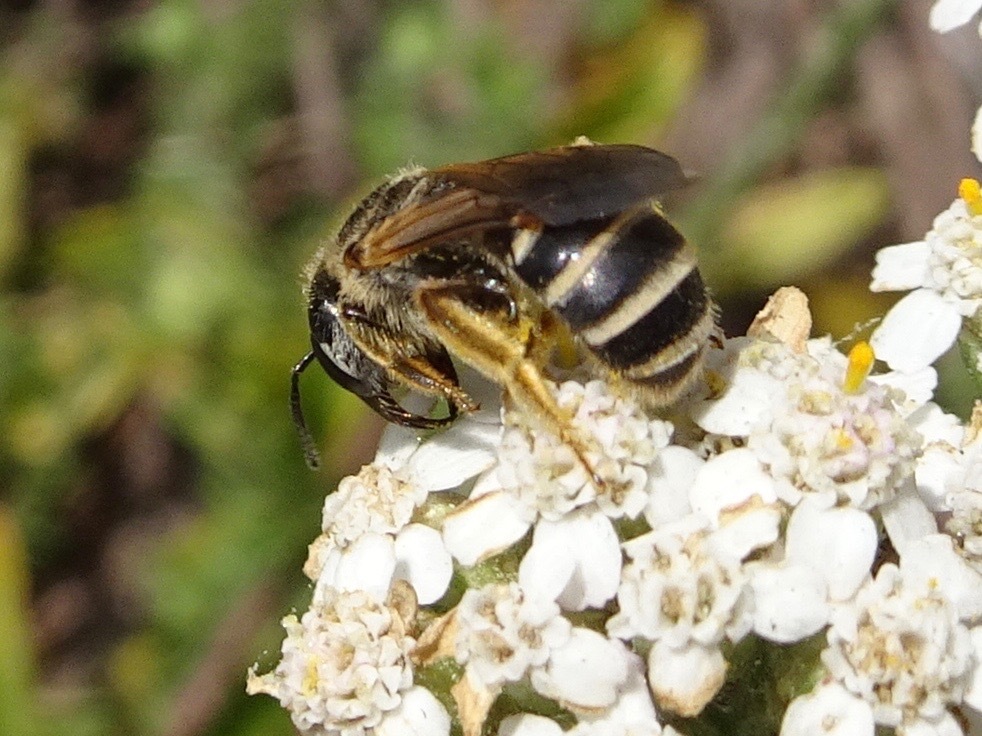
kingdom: Animalia
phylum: Arthropoda
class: Insecta
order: Hymenoptera
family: Halictidae
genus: Halictus
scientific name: Halictus ligatus
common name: Ligated furrow bee
